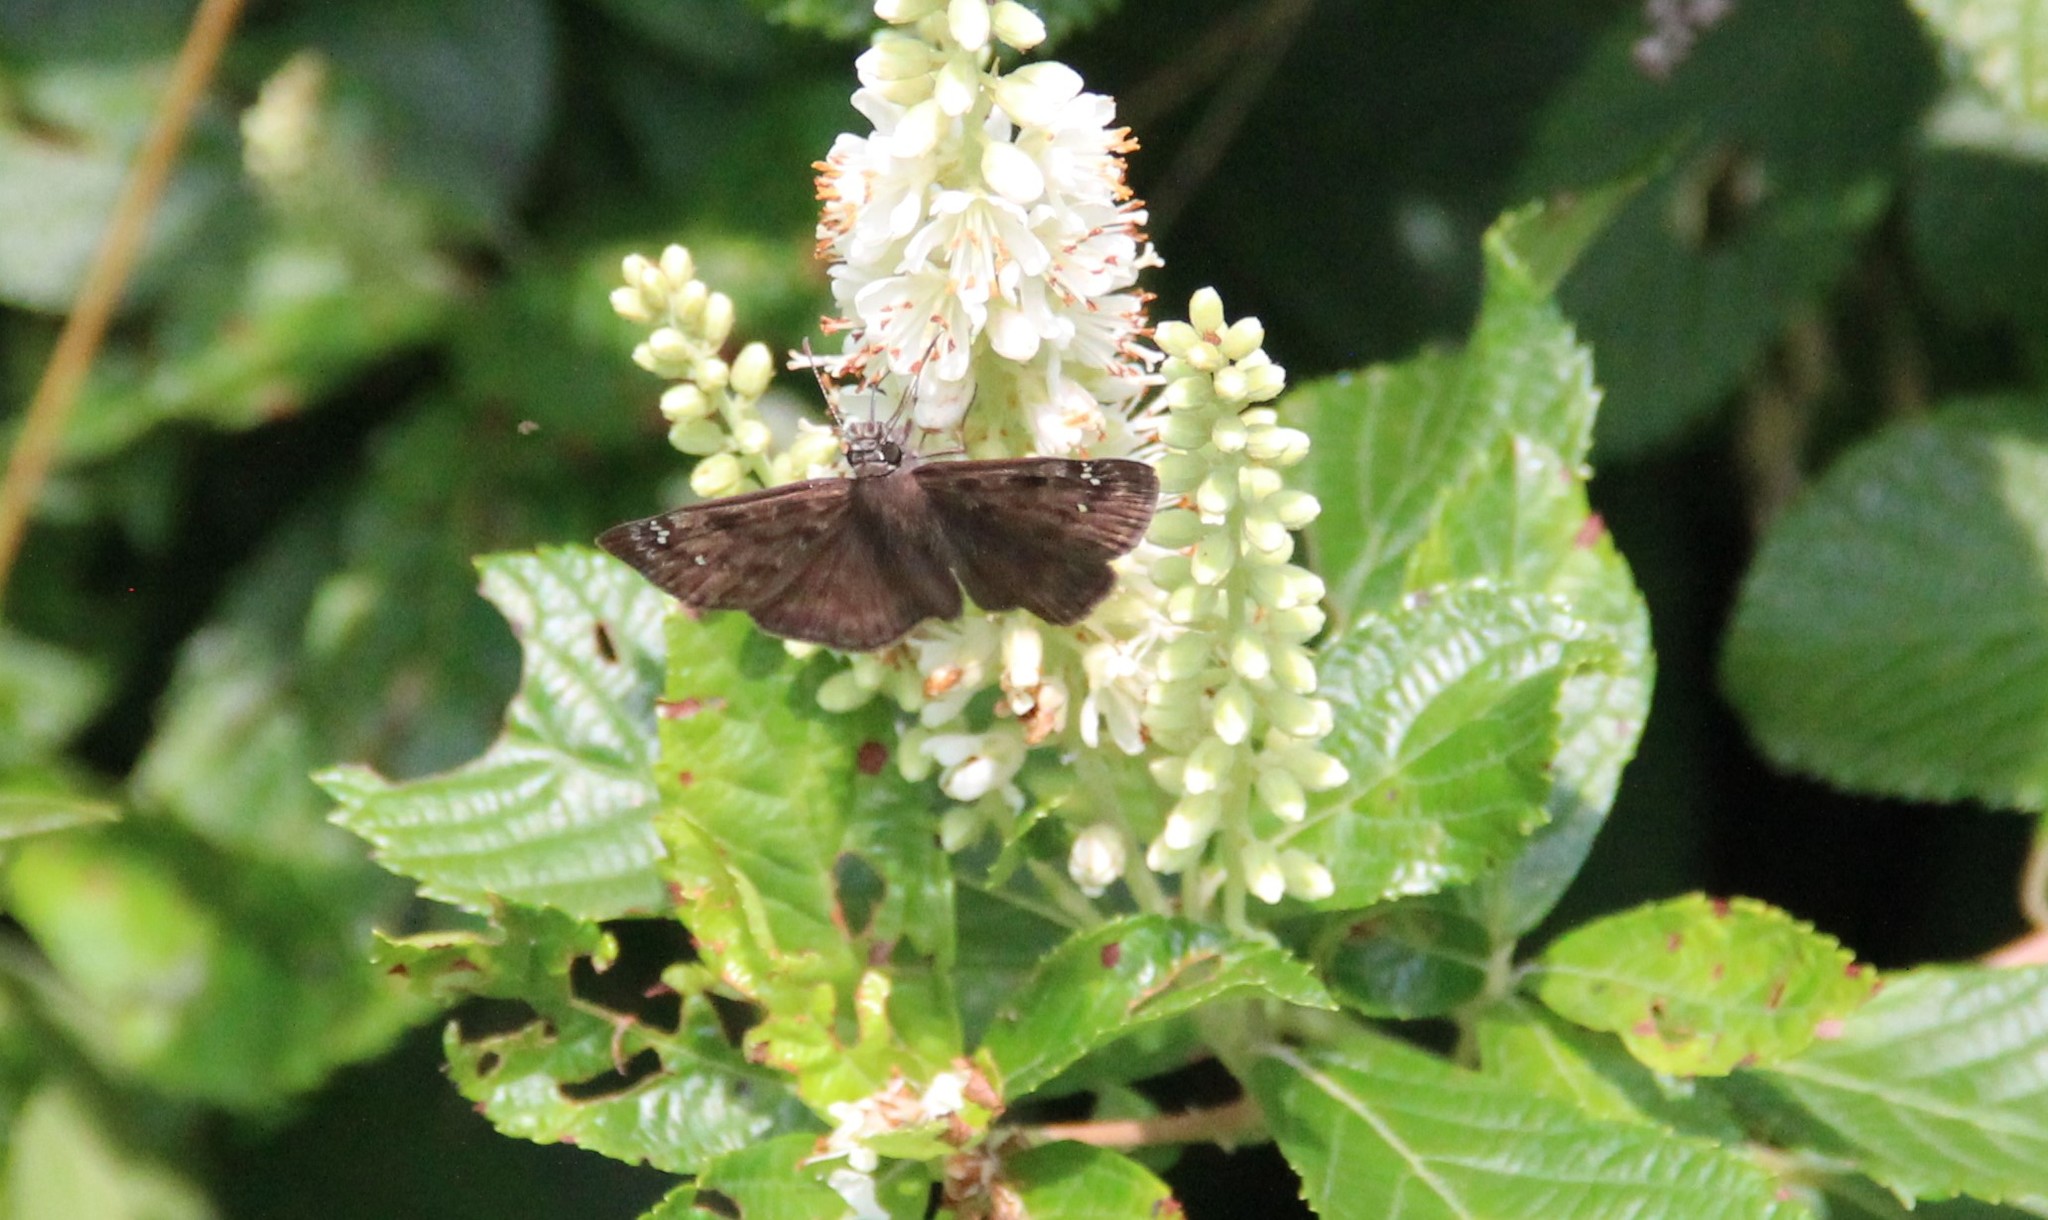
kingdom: Animalia
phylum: Arthropoda
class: Insecta
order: Lepidoptera
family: Hesperiidae
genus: Erynnis
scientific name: Erynnis horatius
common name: Horace's duskywing
